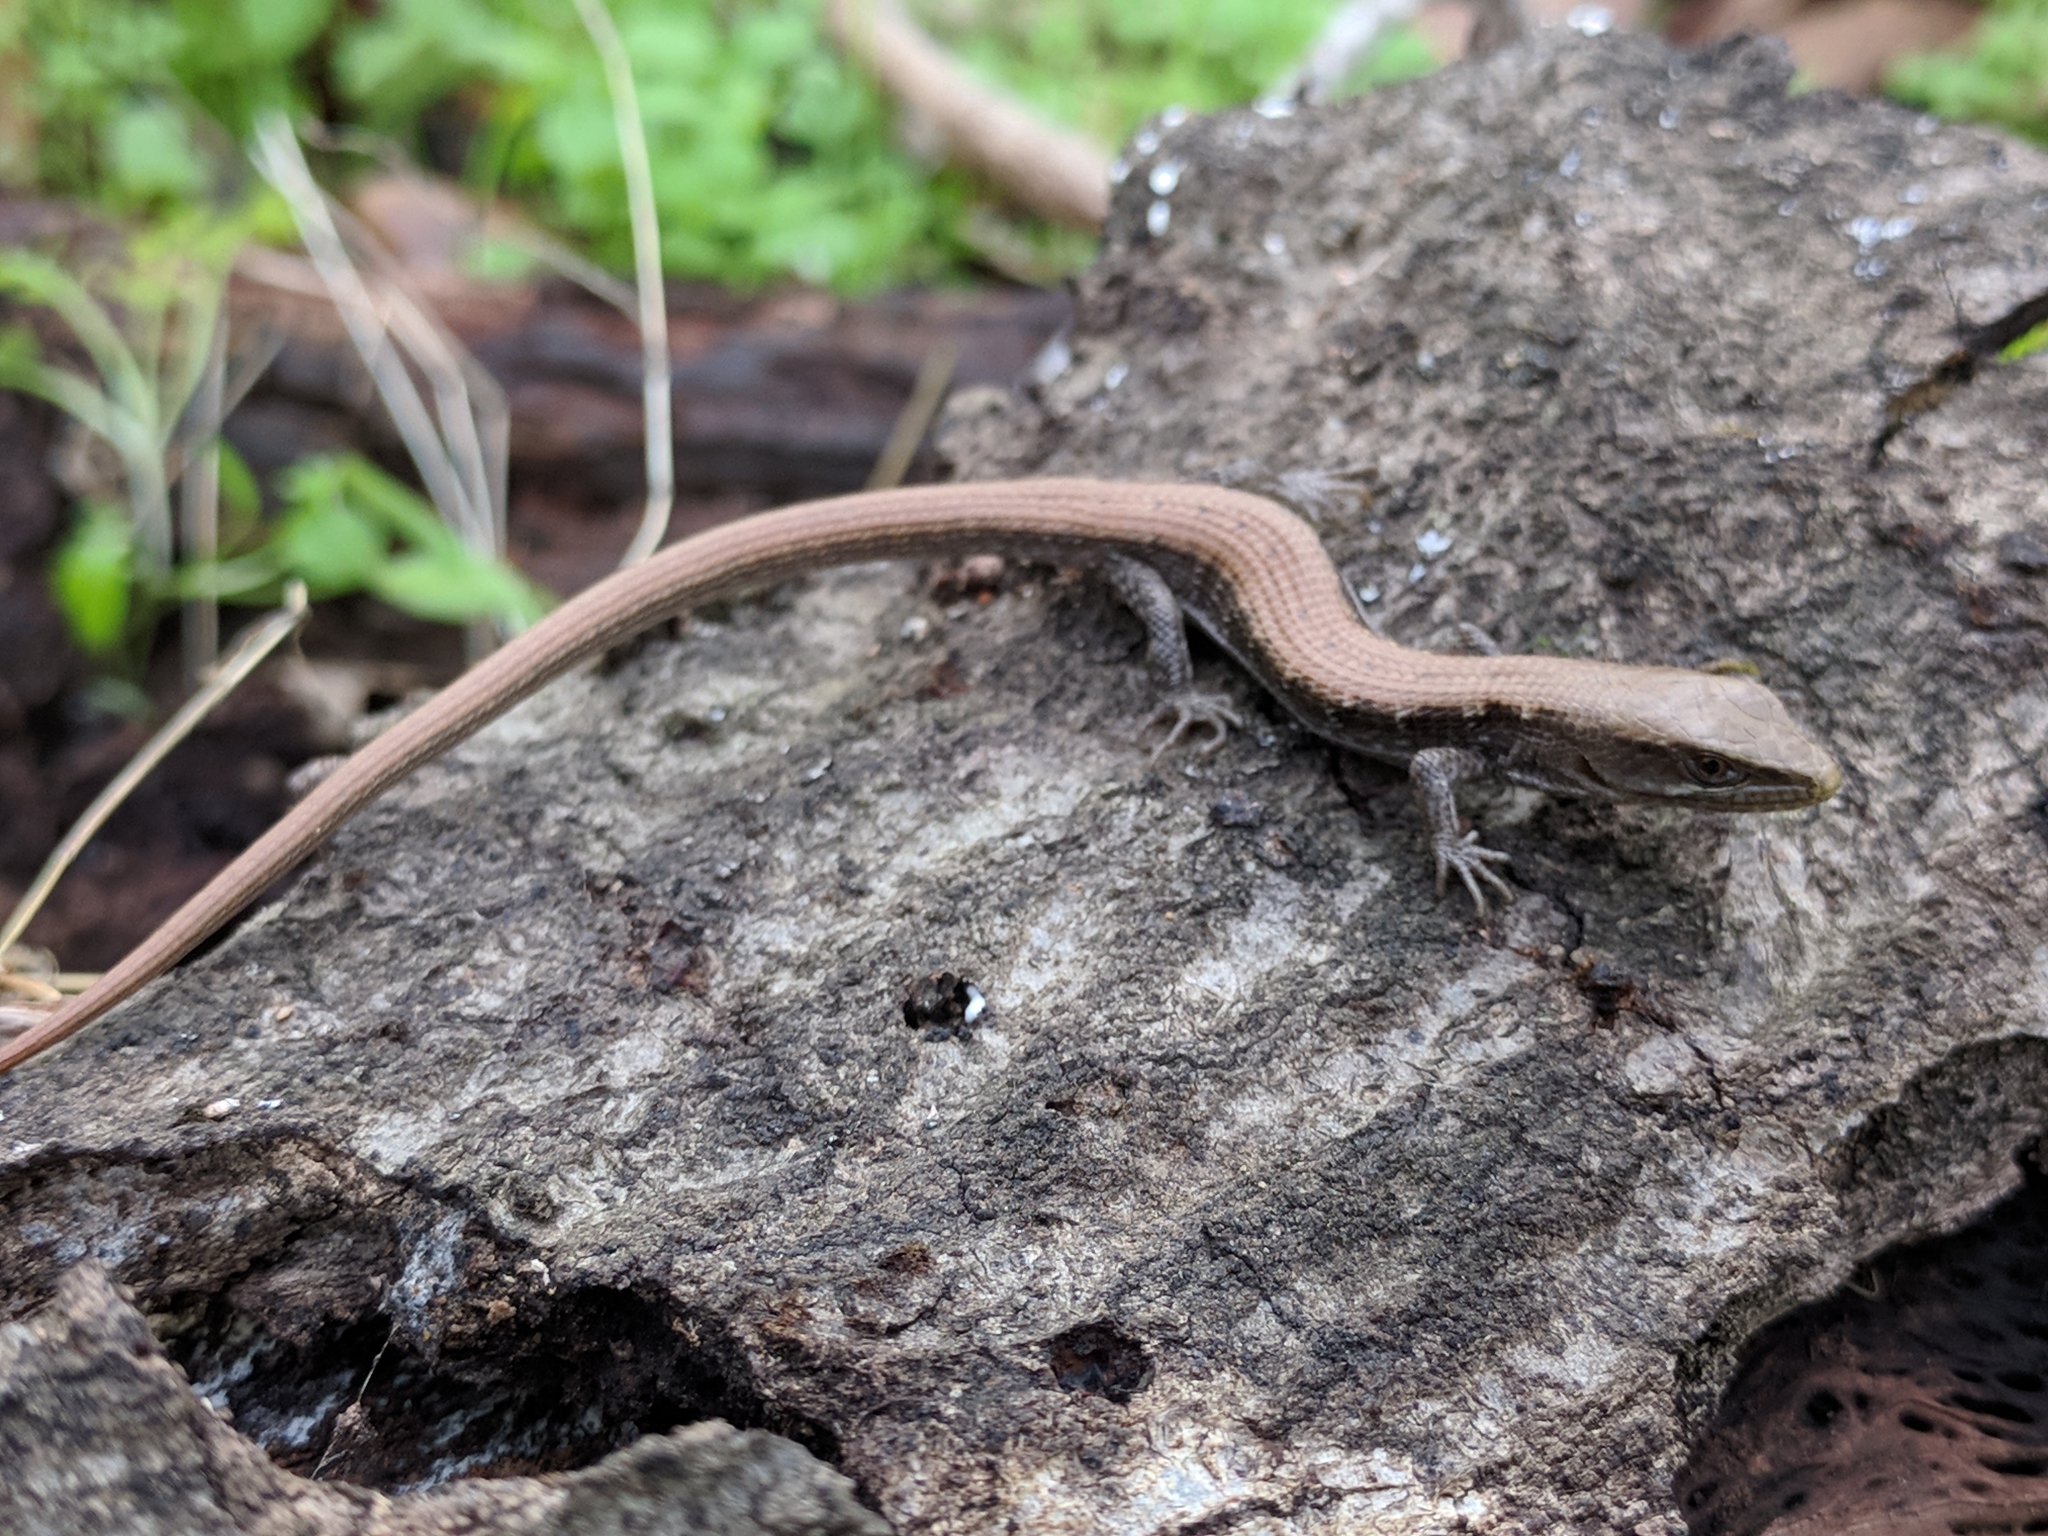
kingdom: Animalia
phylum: Chordata
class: Squamata
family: Anguidae
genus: Elgaria
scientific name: Elgaria multicarinata
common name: Southern alligator lizard
